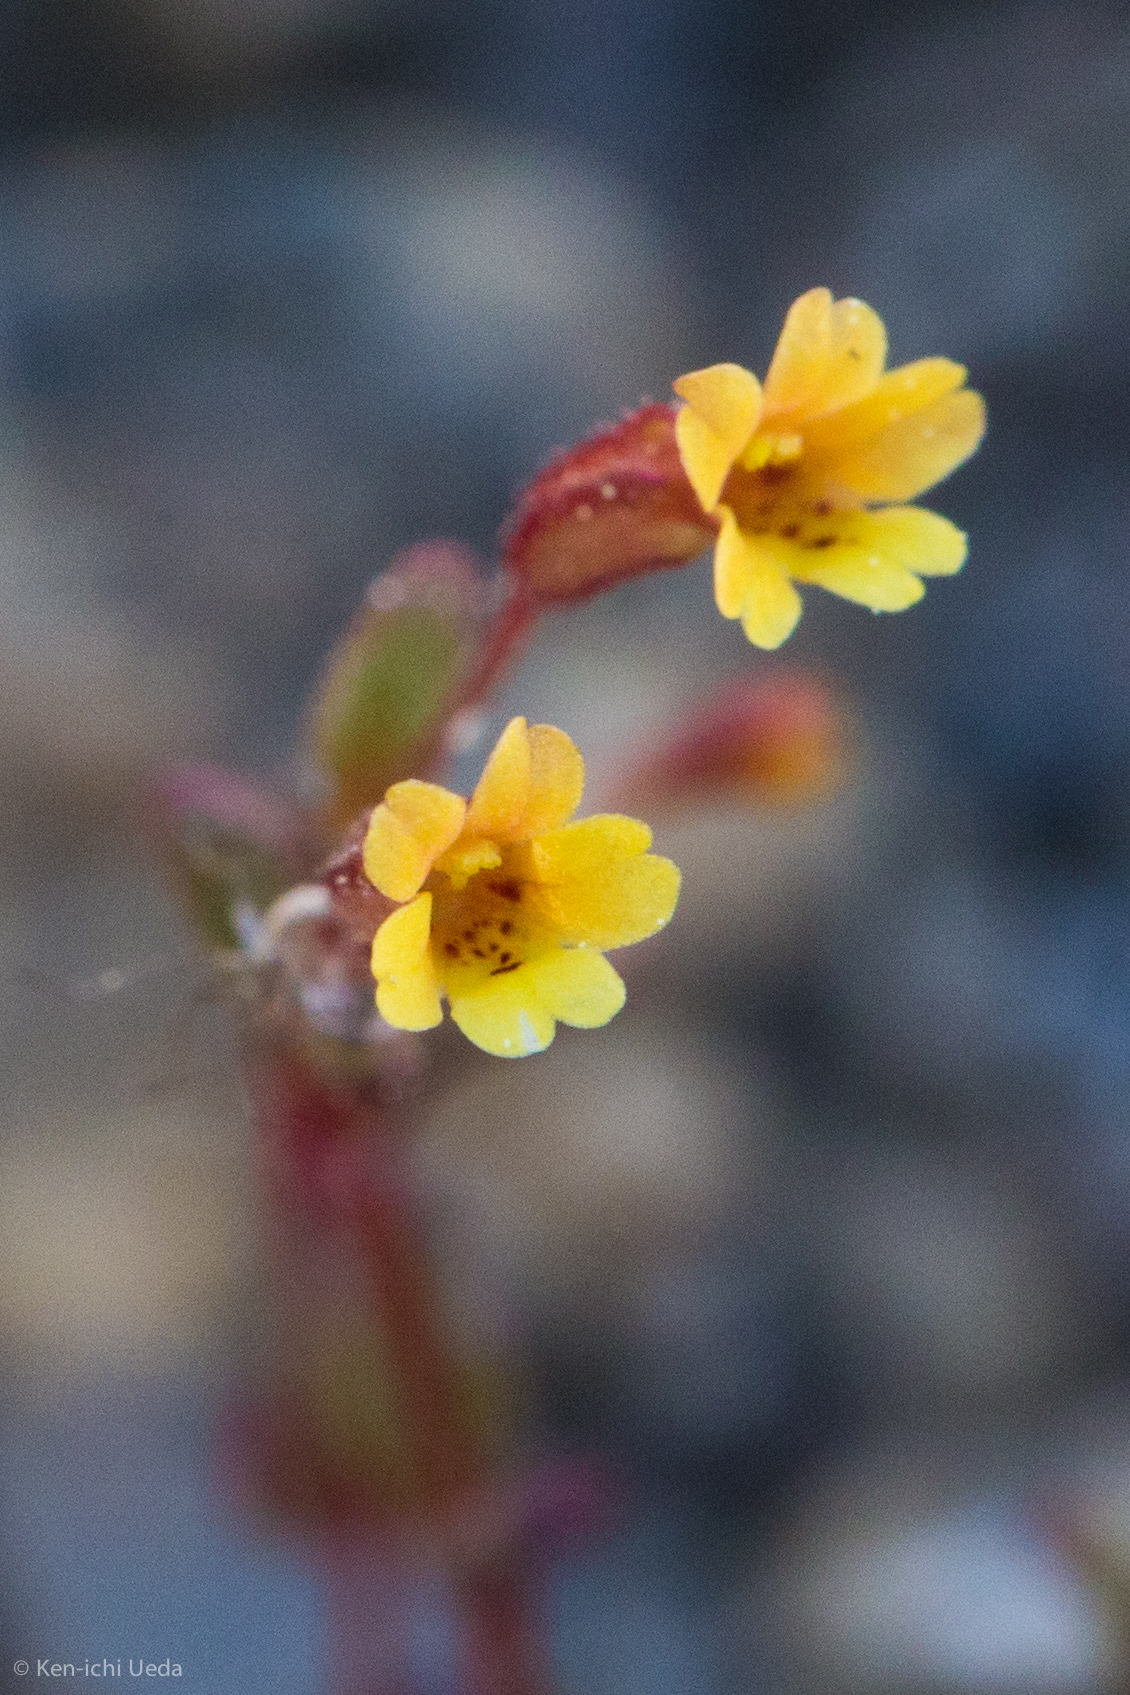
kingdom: Plantae
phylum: Tracheophyta
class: Magnoliopsida
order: Lamiales
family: Phrymaceae
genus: Erythranthe
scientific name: Erythranthe suksdorfii
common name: Suksdorf's monkeyflower
